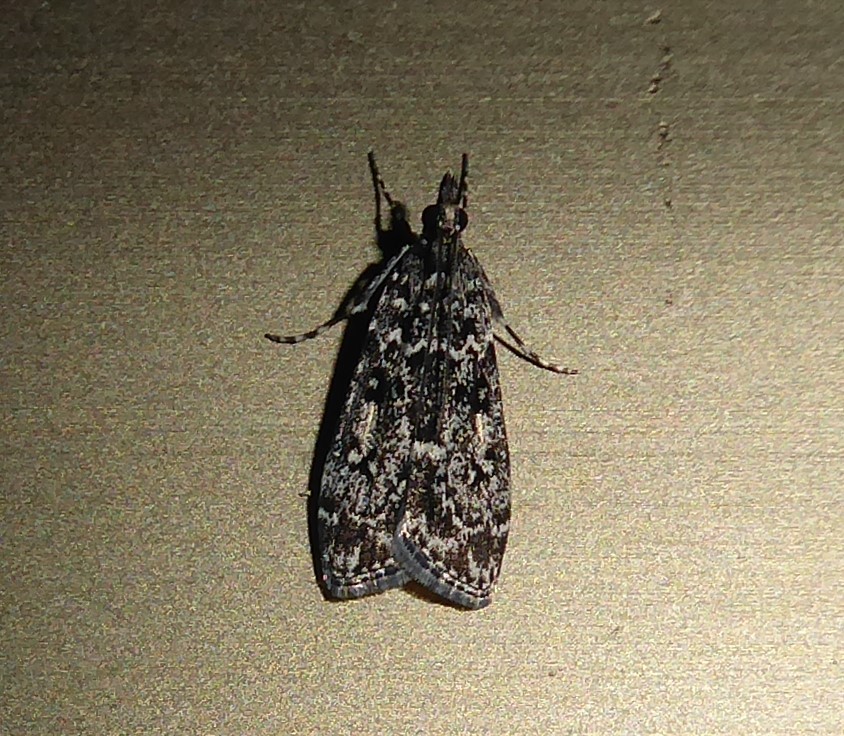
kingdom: Animalia
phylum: Arthropoda
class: Insecta
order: Lepidoptera
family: Crambidae
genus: Eudonia
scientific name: Eudonia philerga
